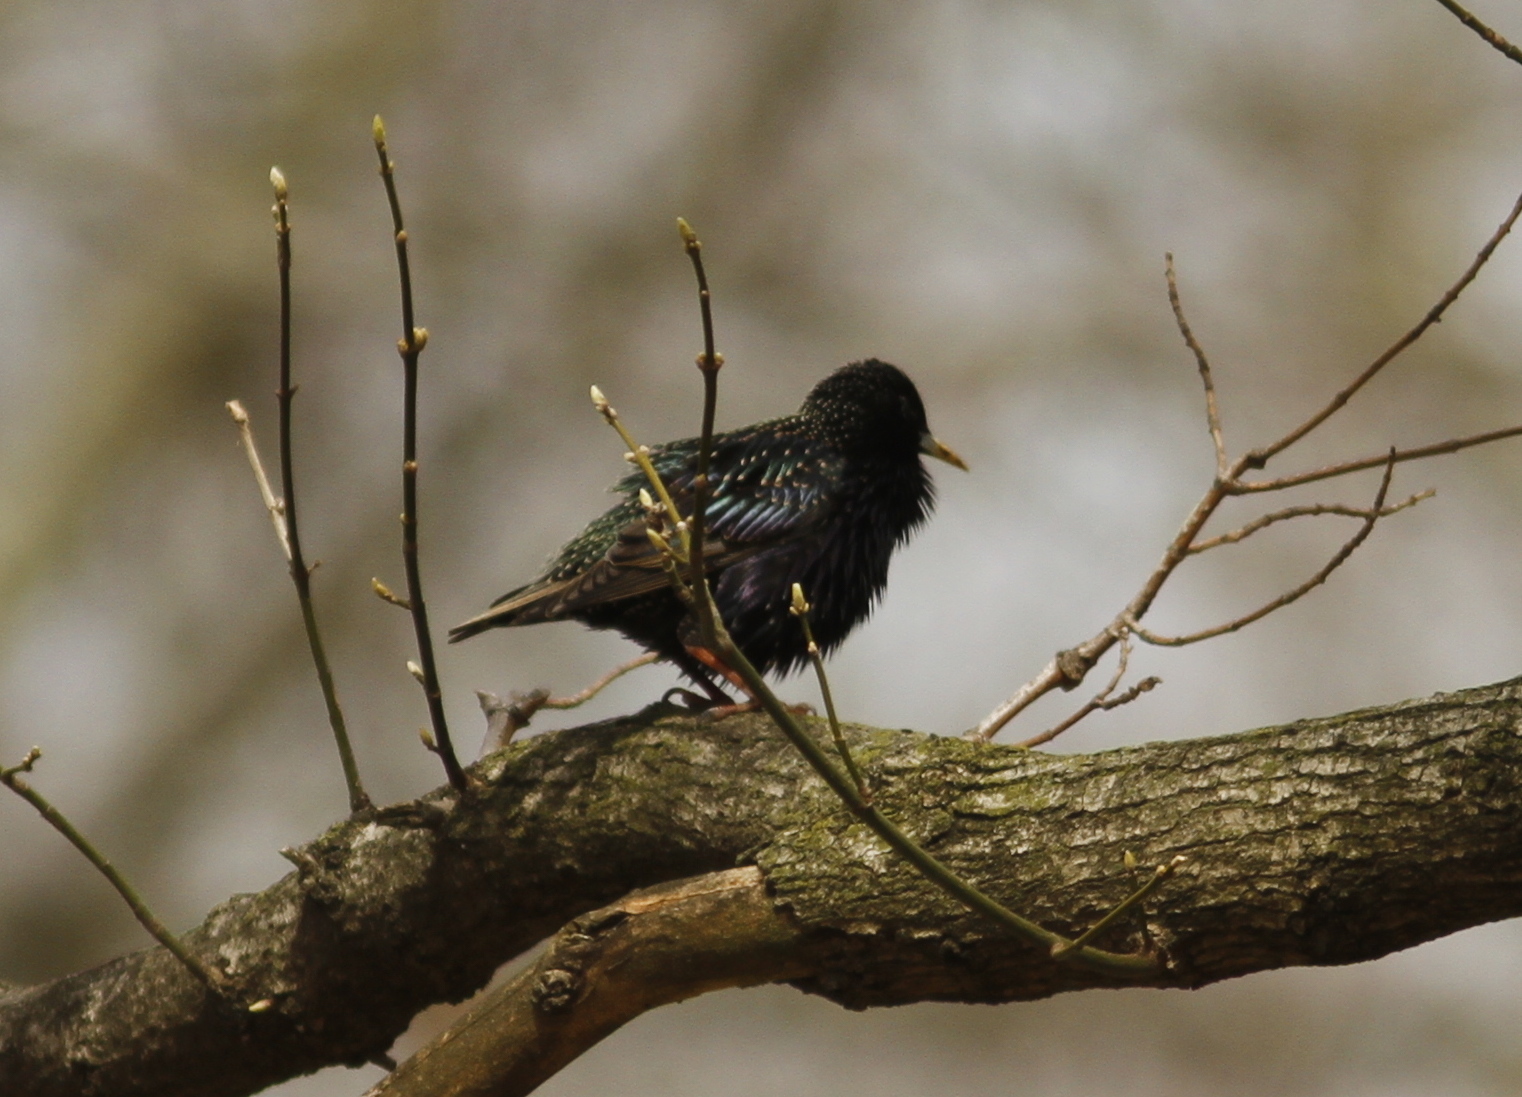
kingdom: Animalia
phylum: Chordata
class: Aves
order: Passeriformes
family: Sturnidae
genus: Sturnus
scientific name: Sturnus vulgaris
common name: Common starling
